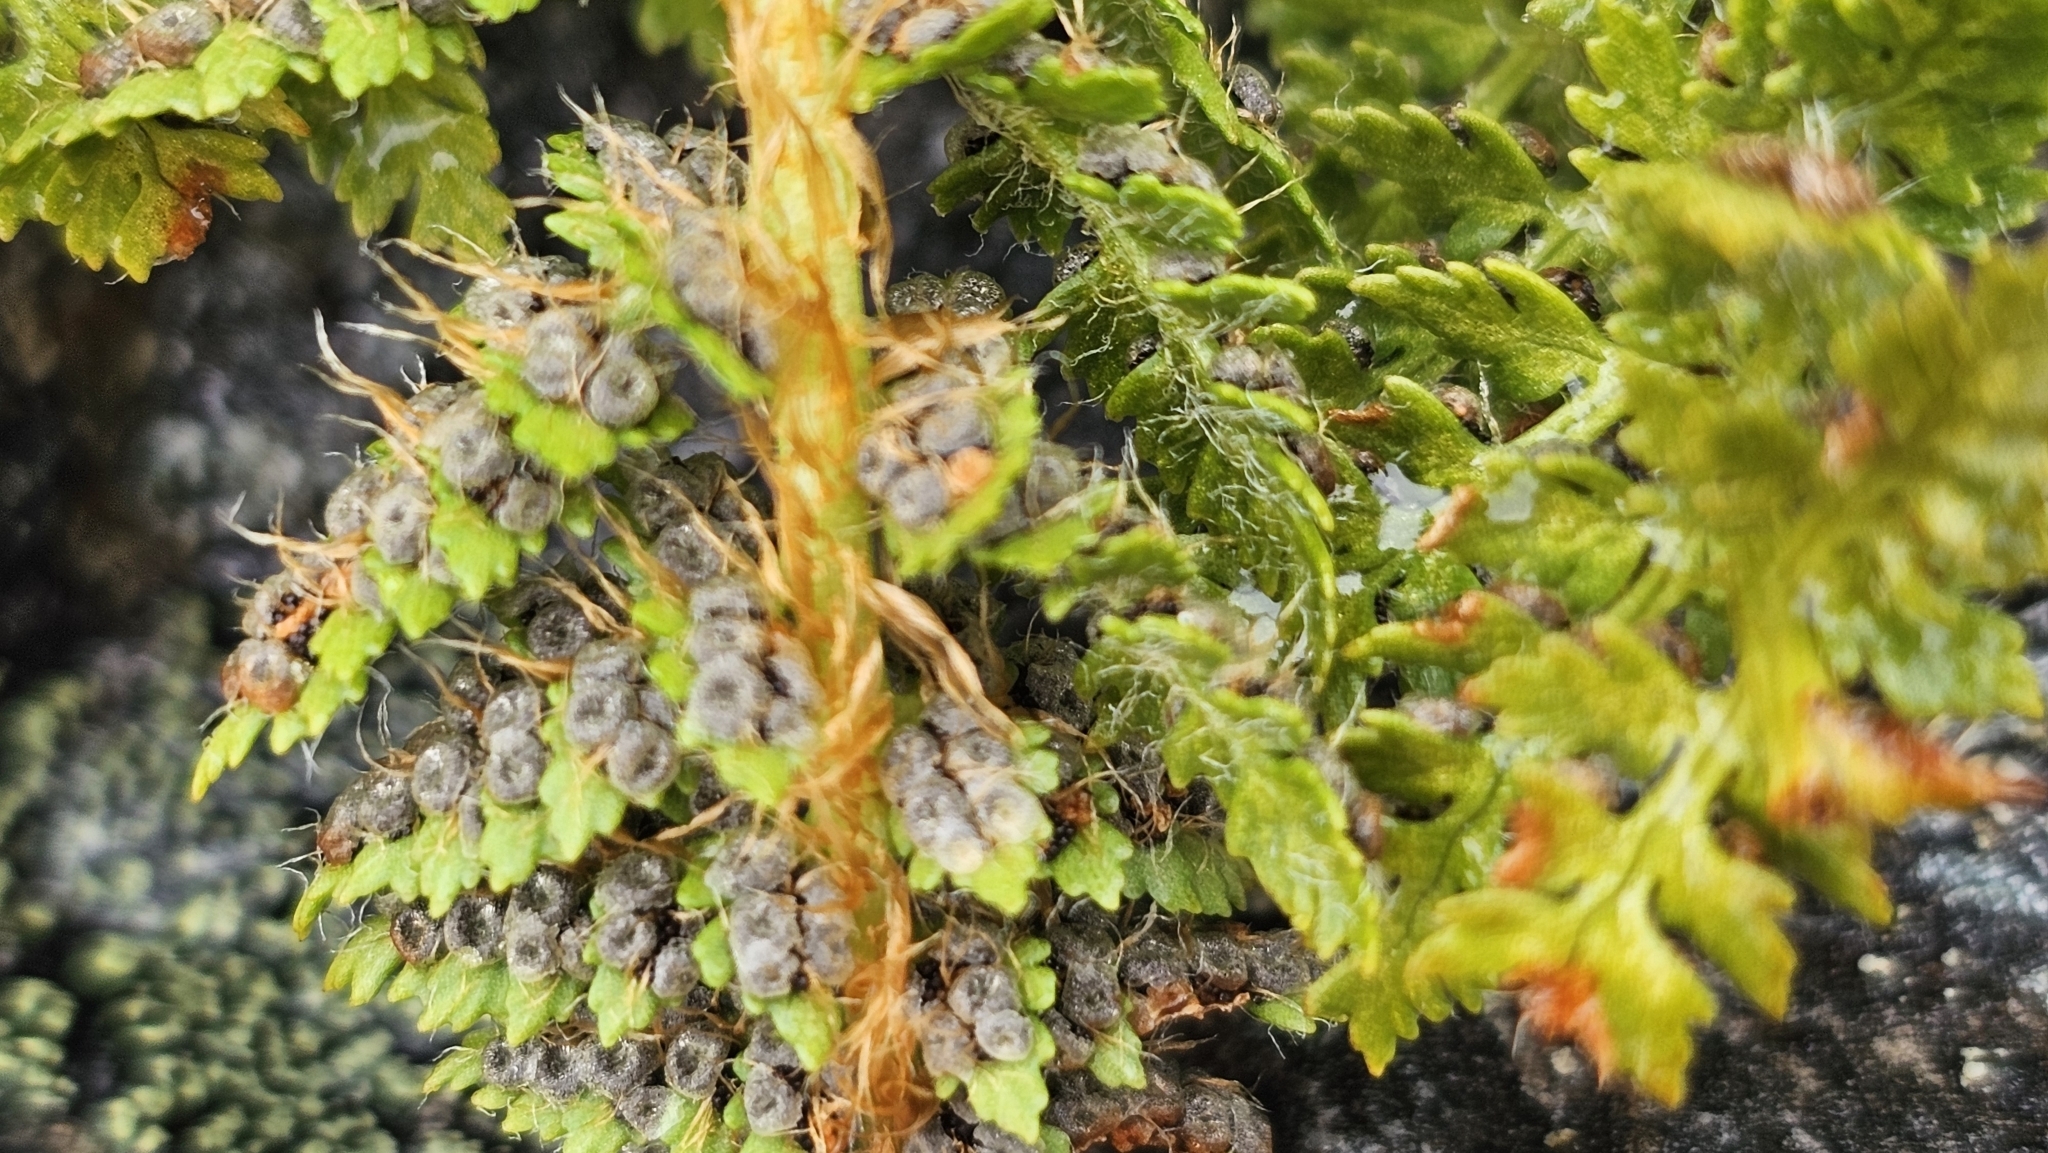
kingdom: Plantae
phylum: Tracheophyta
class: Polypodiopsida
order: Polypodiales
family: Dryopteridaceae
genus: Polystichum
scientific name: Polystichum cystostegia
